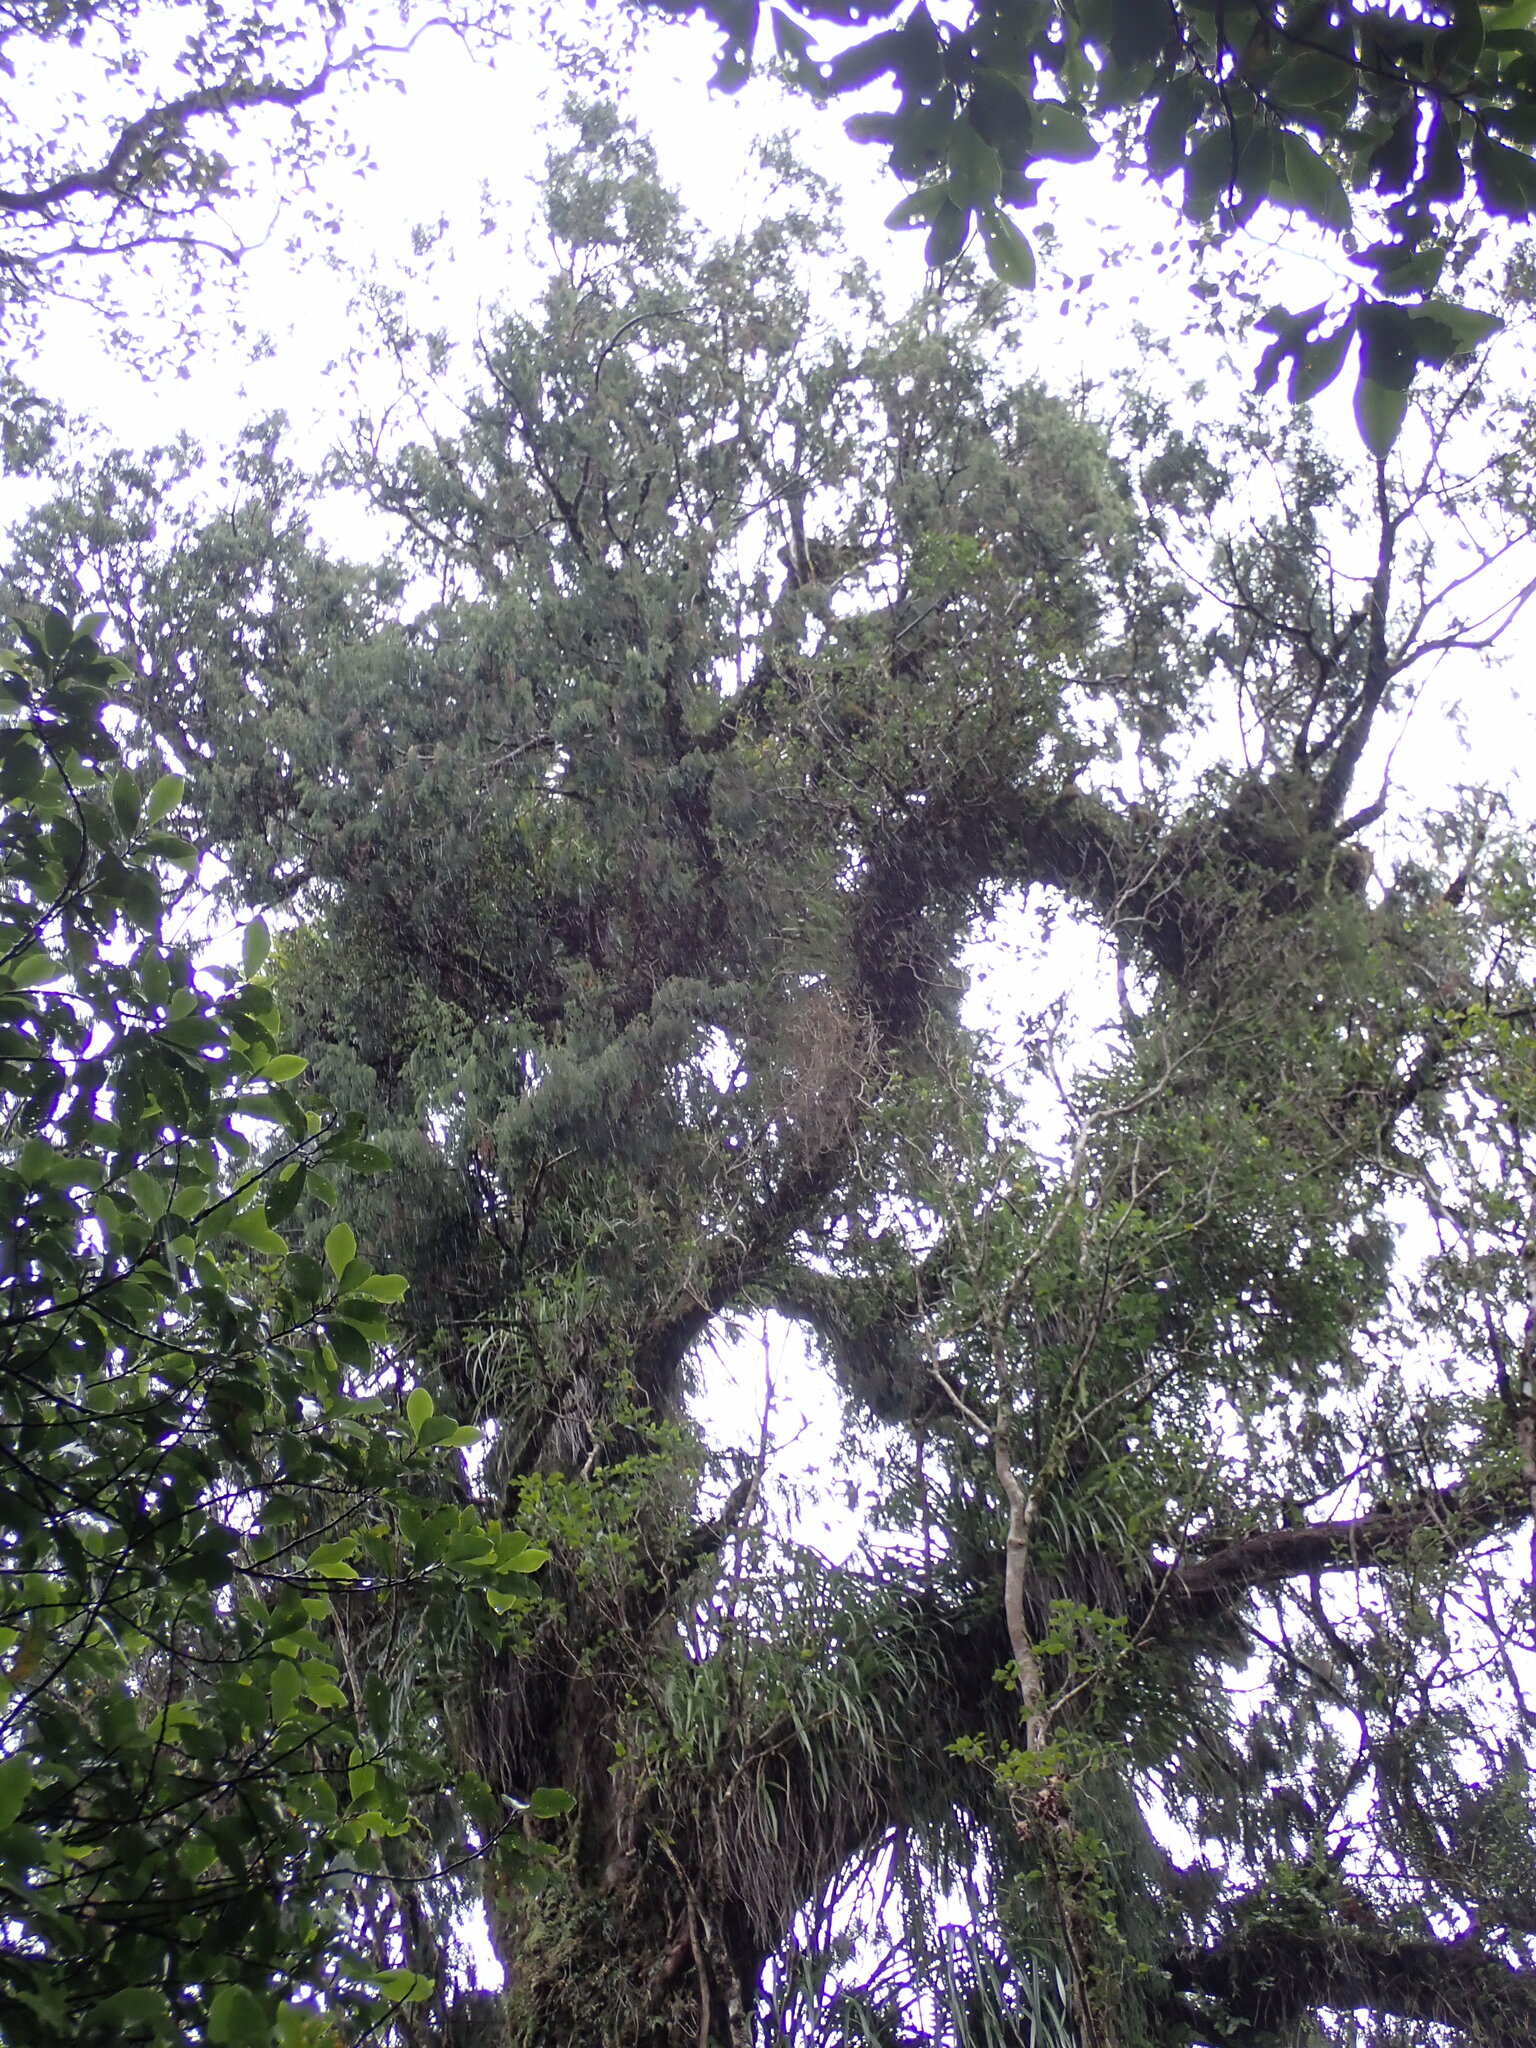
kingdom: Plantae
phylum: Tracheophyta
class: Pinopsida
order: Pinales
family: Podocarpaceae
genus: Dacrydium
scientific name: Dacrydium cupressinum
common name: Red pine
